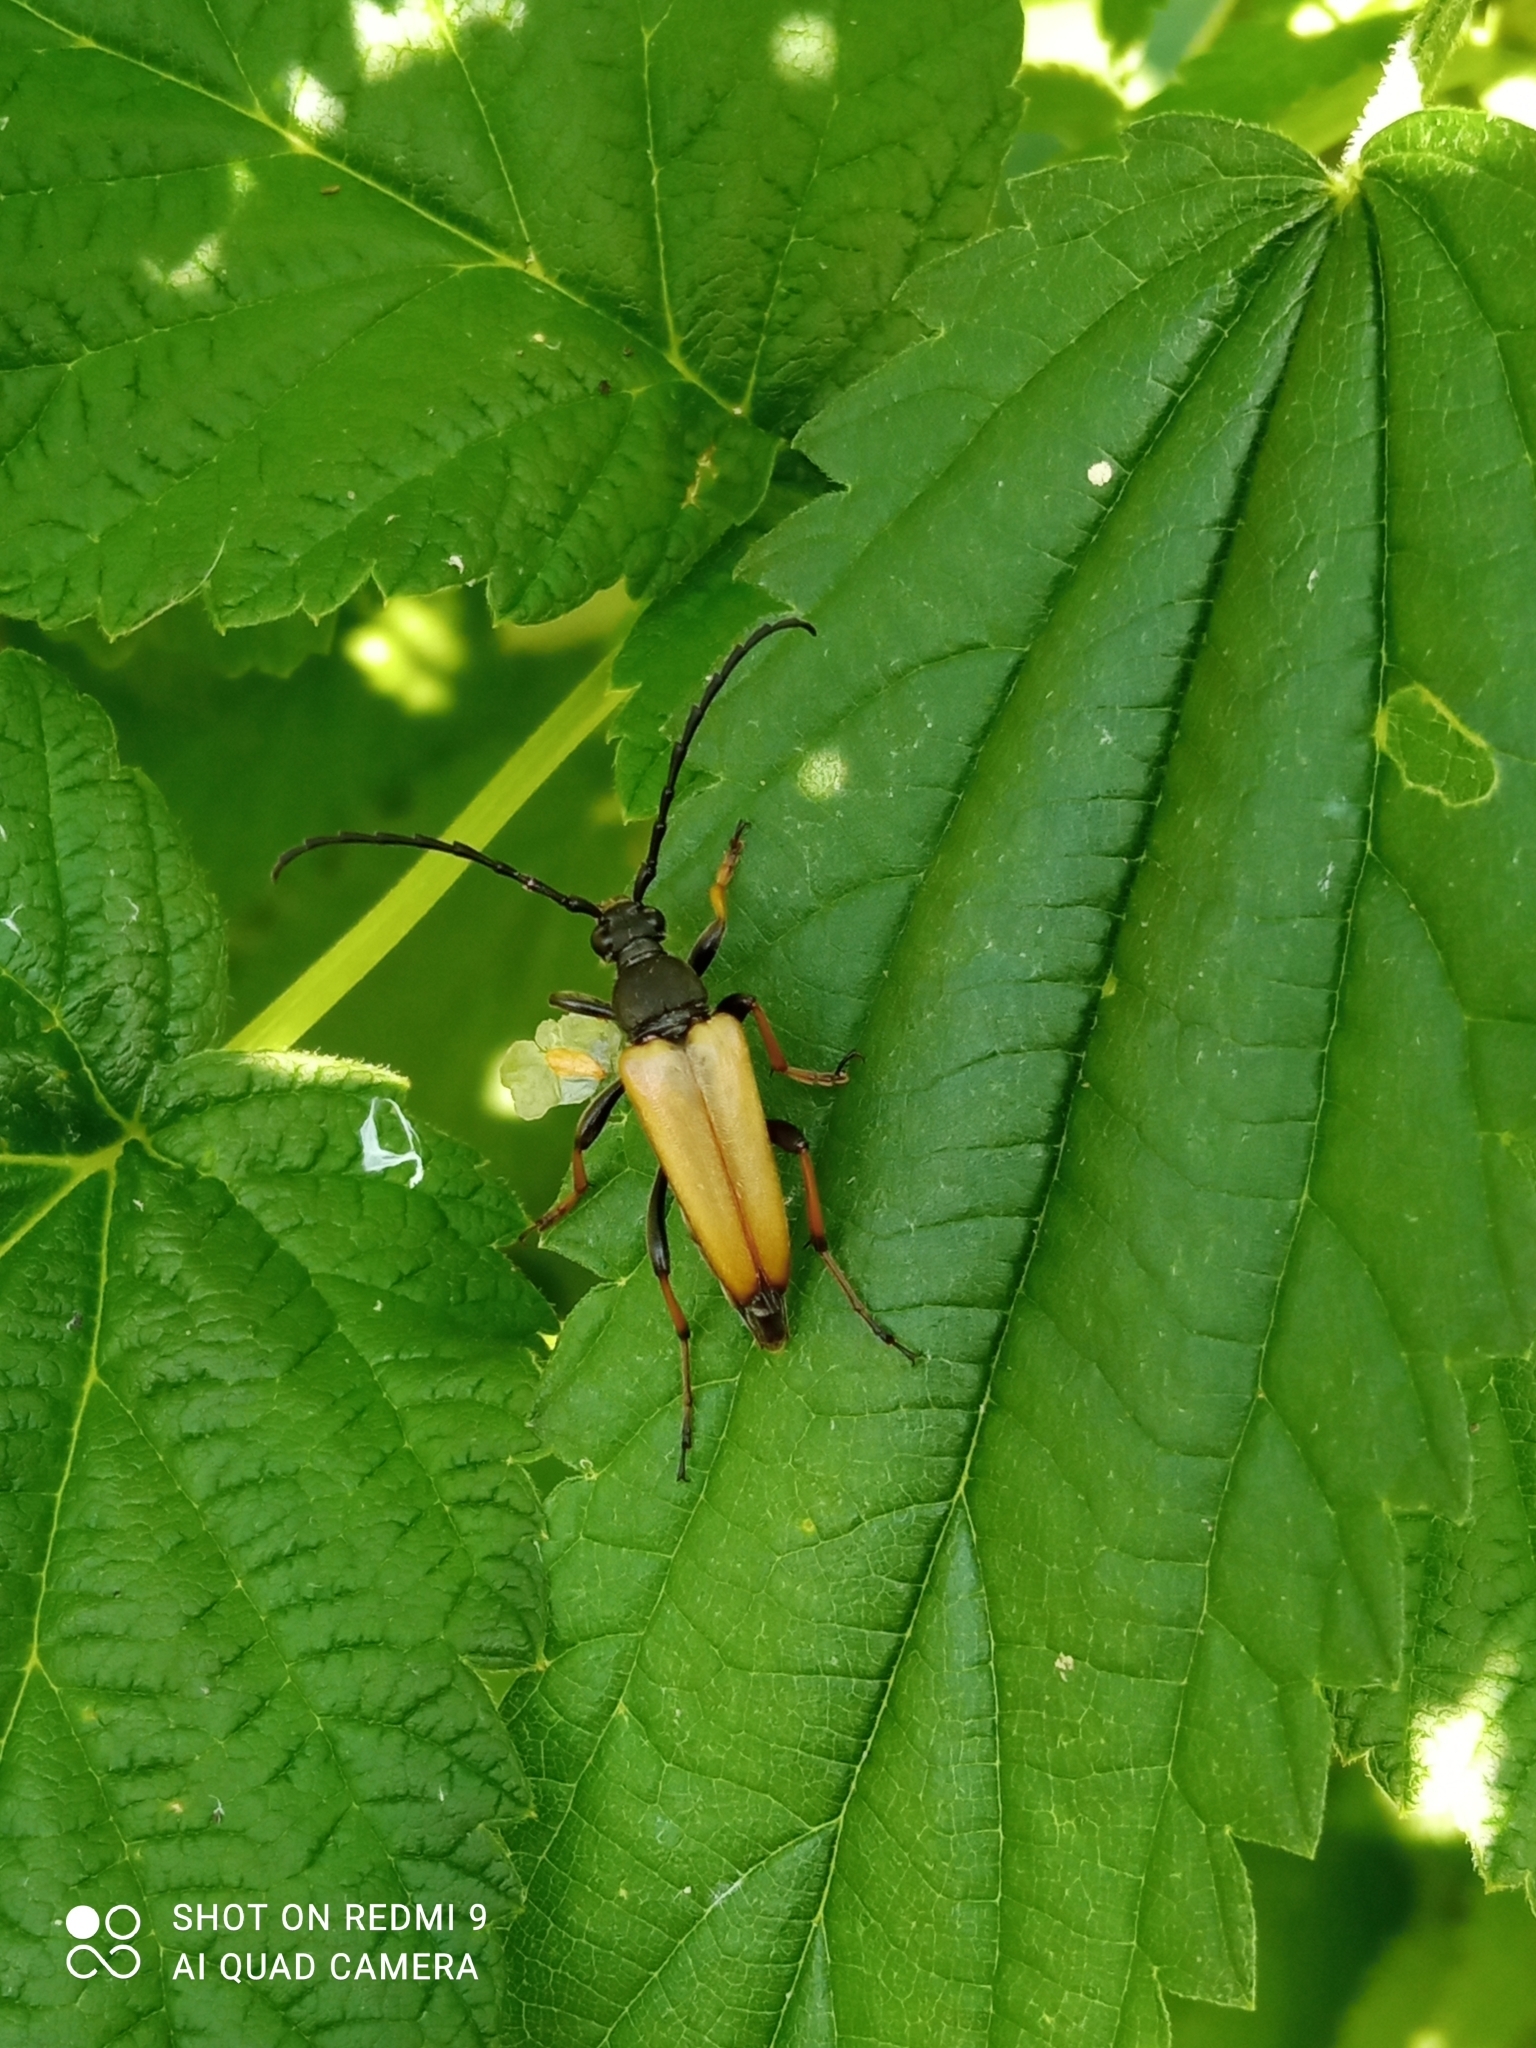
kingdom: Animalia
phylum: Arthropoda
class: Insecta
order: Coleoptera
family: Cerambycidae
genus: Stictoleptura
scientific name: Stictoleptura rubra
